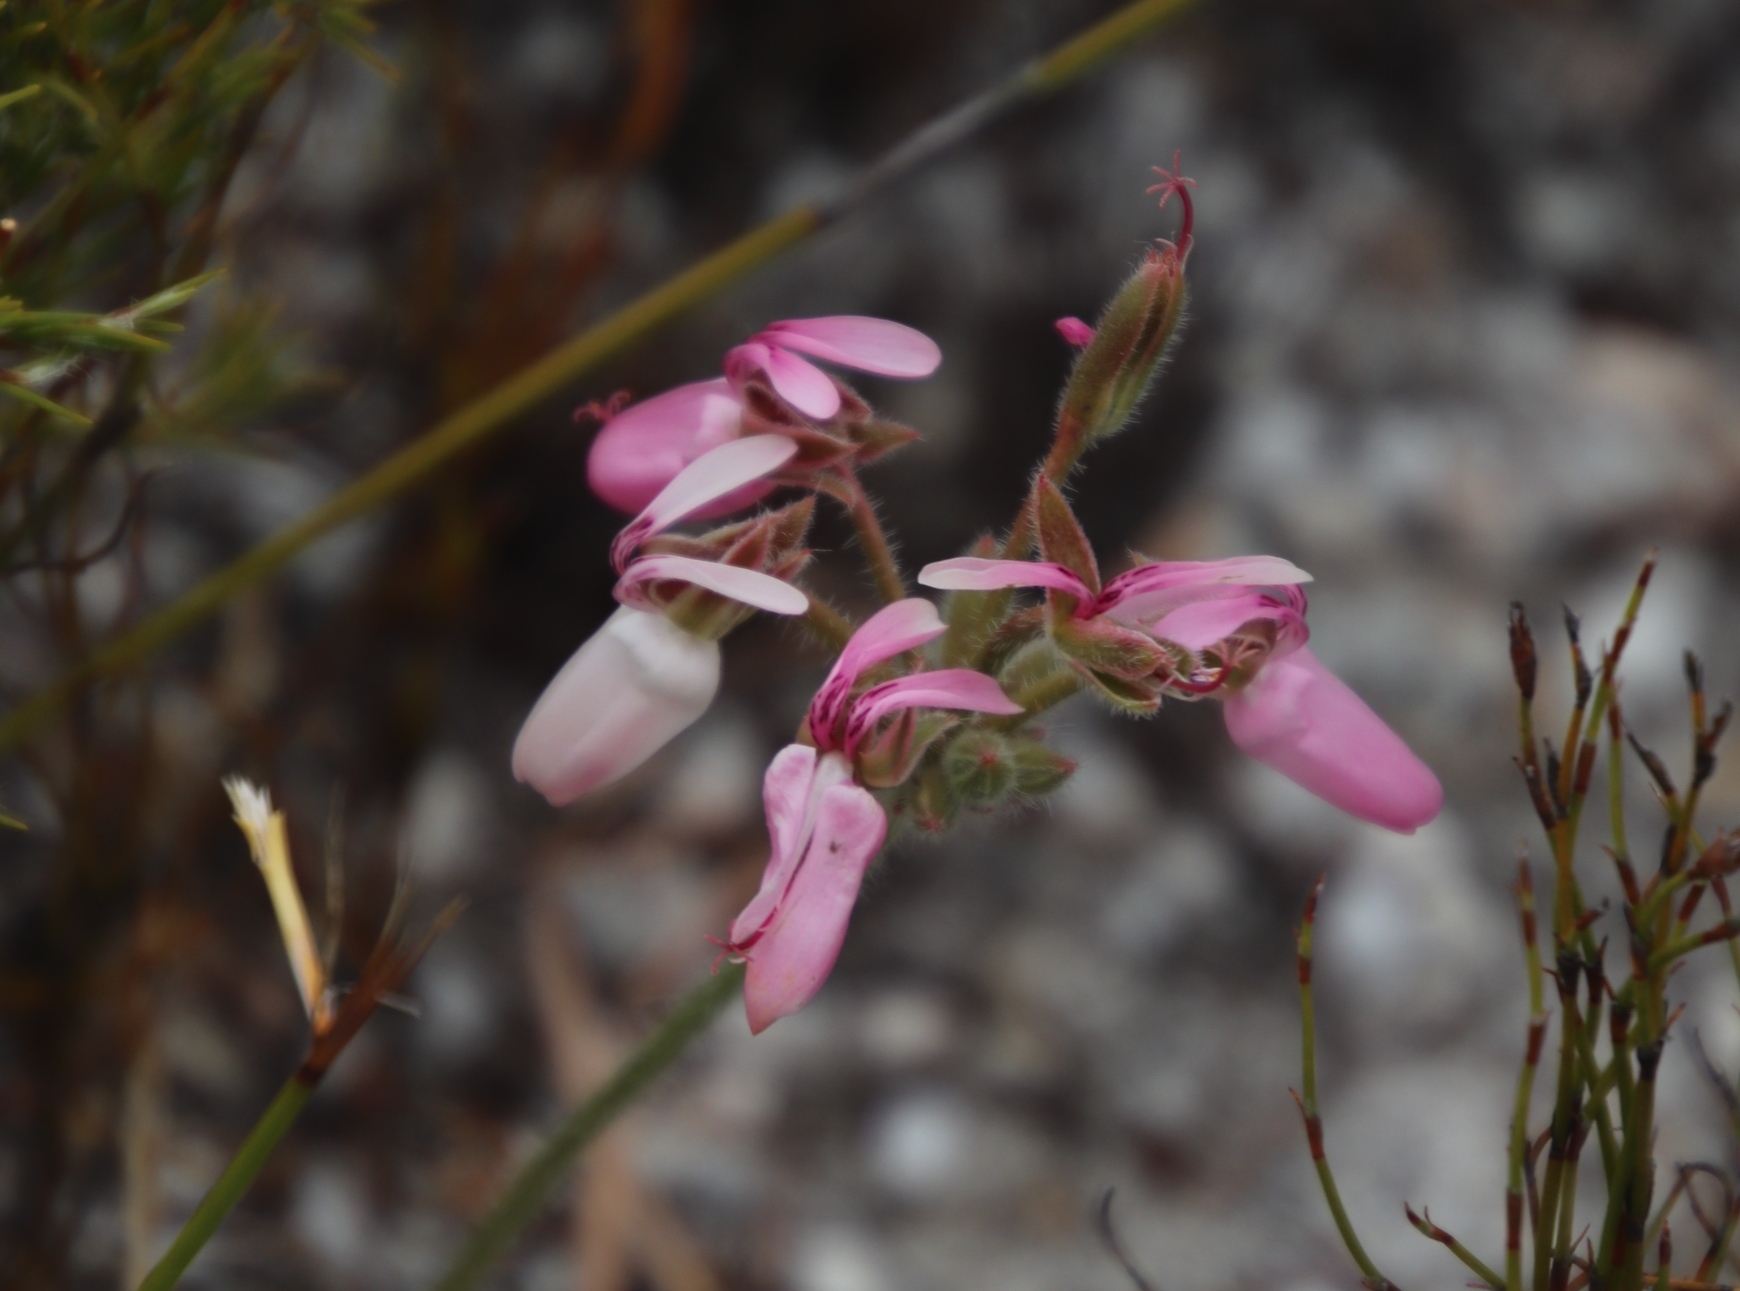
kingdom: Plantae
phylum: Tracheophyta
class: Magnoliopsida
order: Geraniales
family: Geraniaceae
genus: Pelargonium
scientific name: Pelargonium rapaceum
